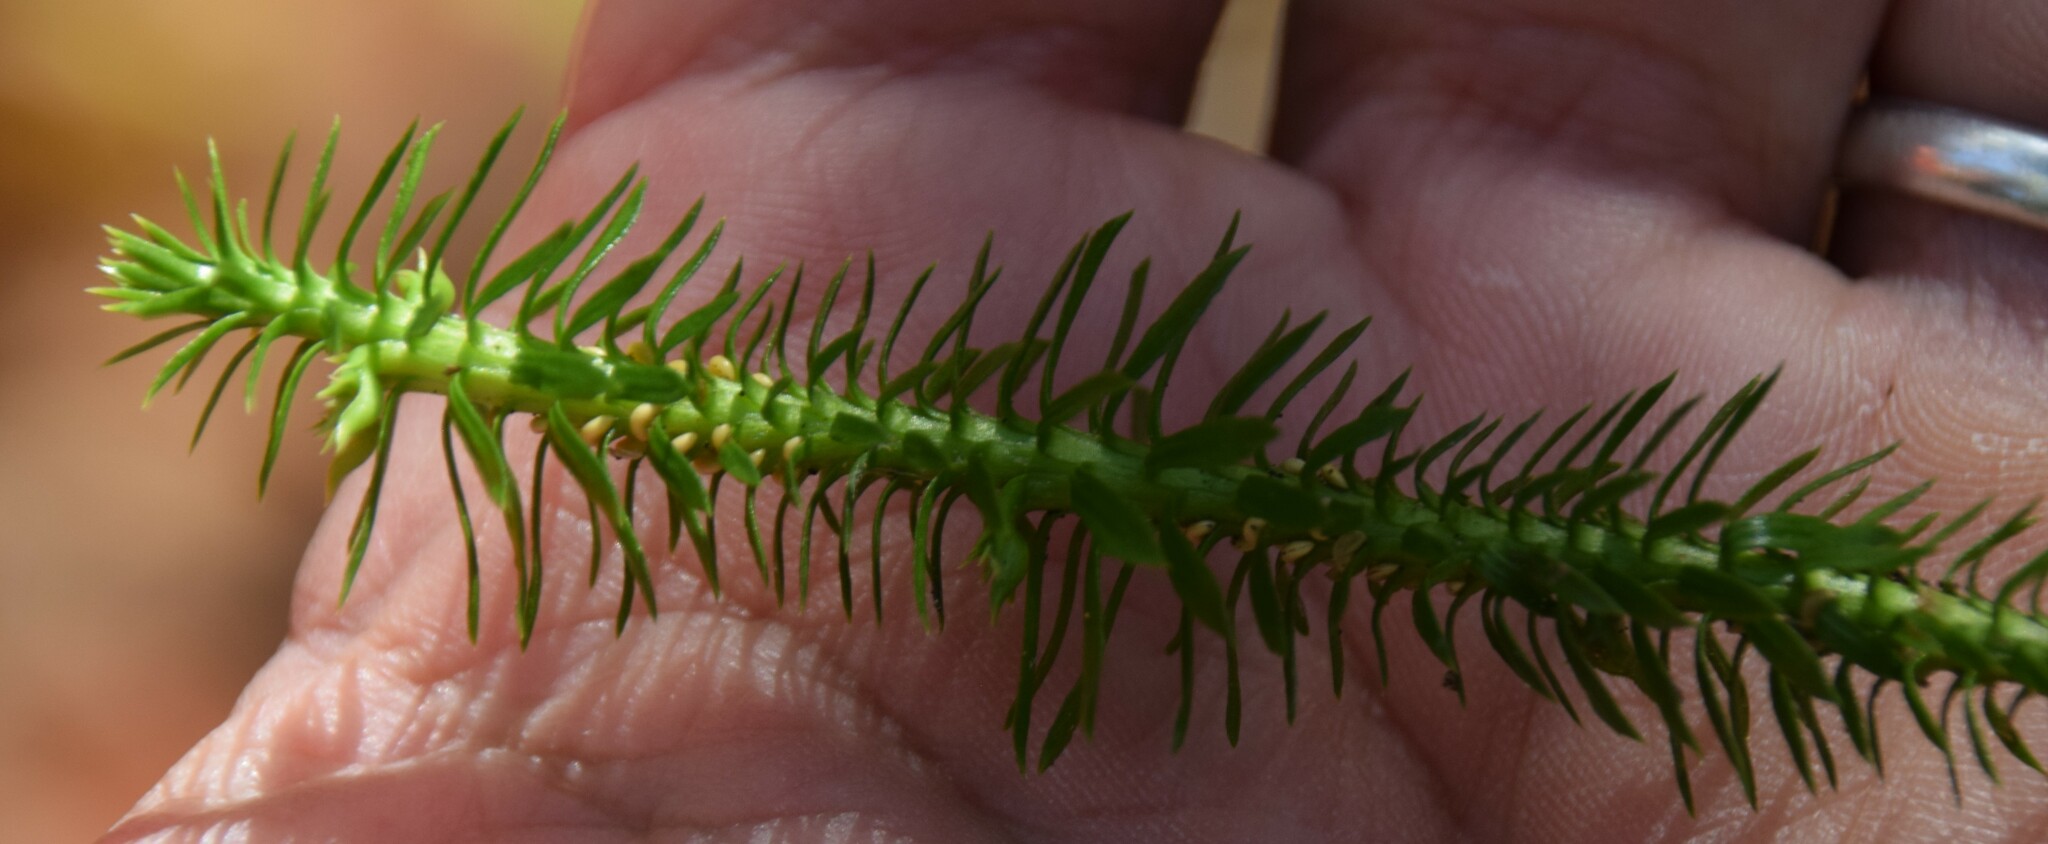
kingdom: Plantae
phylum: Tracheophyta
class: Lycopodiopsida
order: Lycopodiales
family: Lycopodiaceae
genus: Huperzia
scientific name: Huperzia lucidula
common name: Shining clubmoss
